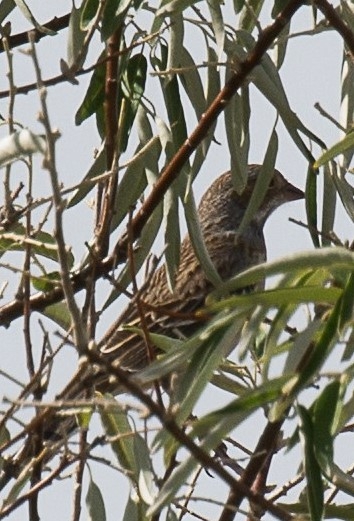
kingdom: Animalia
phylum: Chordata
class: Aves
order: Passeriformes
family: Thraupidae
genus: Rhopospina
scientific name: Rhopospina fruticeti
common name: Mourning sierra finch
